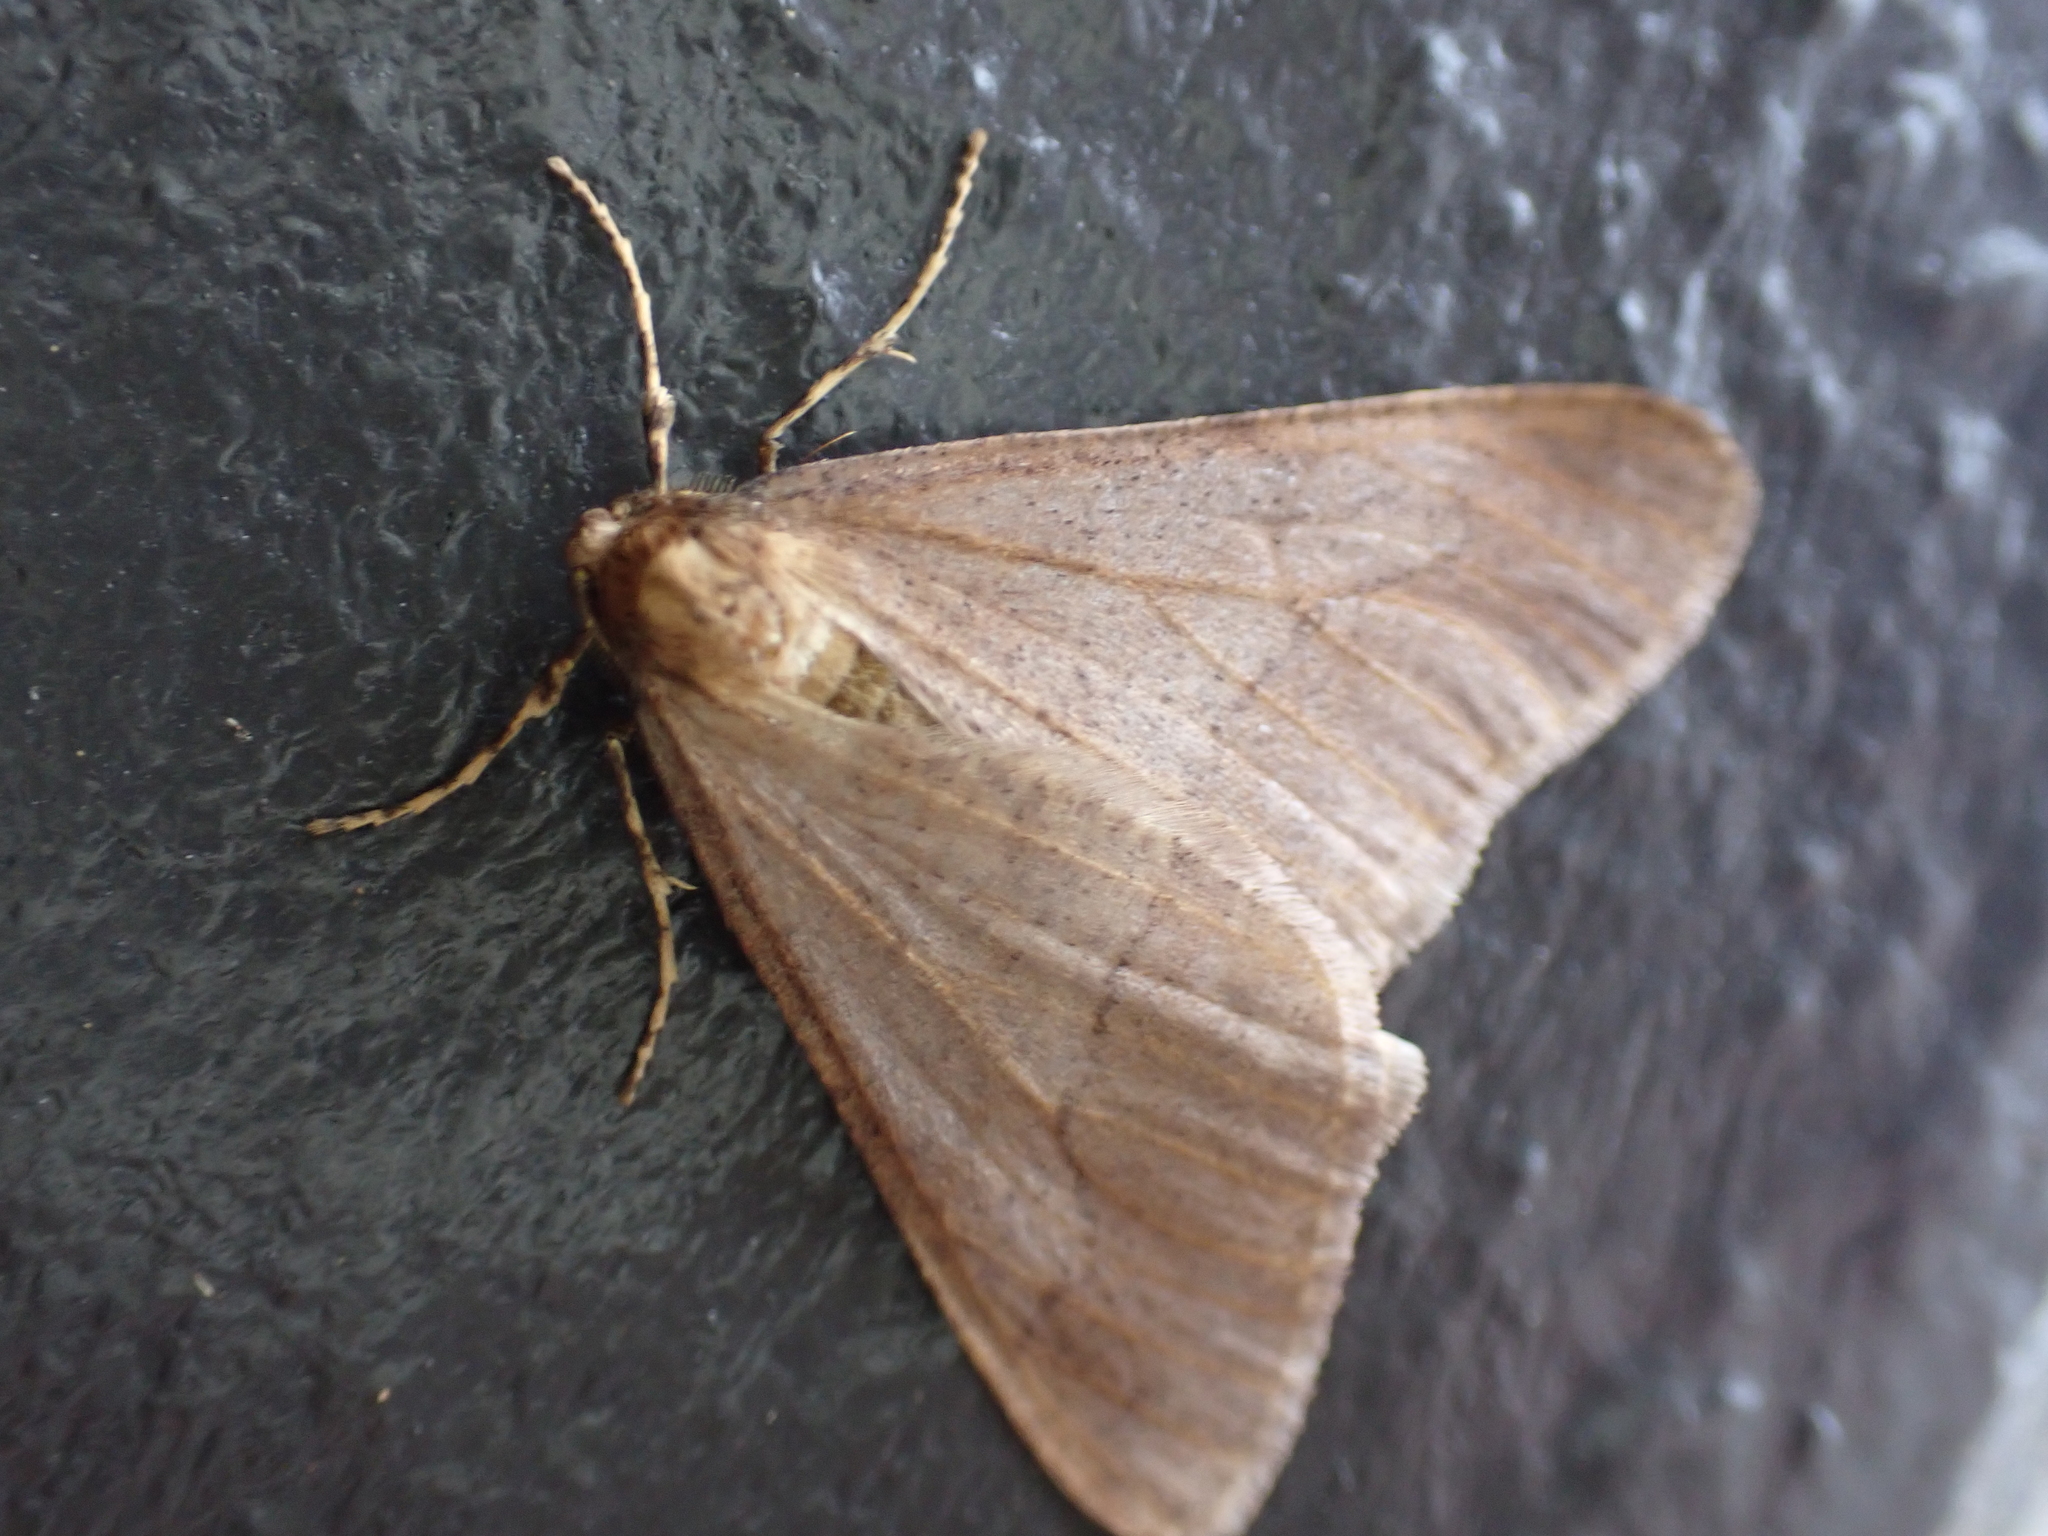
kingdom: Animalia
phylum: Arthropoda
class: Insecta
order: Lepidoptera
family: Geometridae
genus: Erannis
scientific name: Erannis tiliaria
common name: Linden looper
